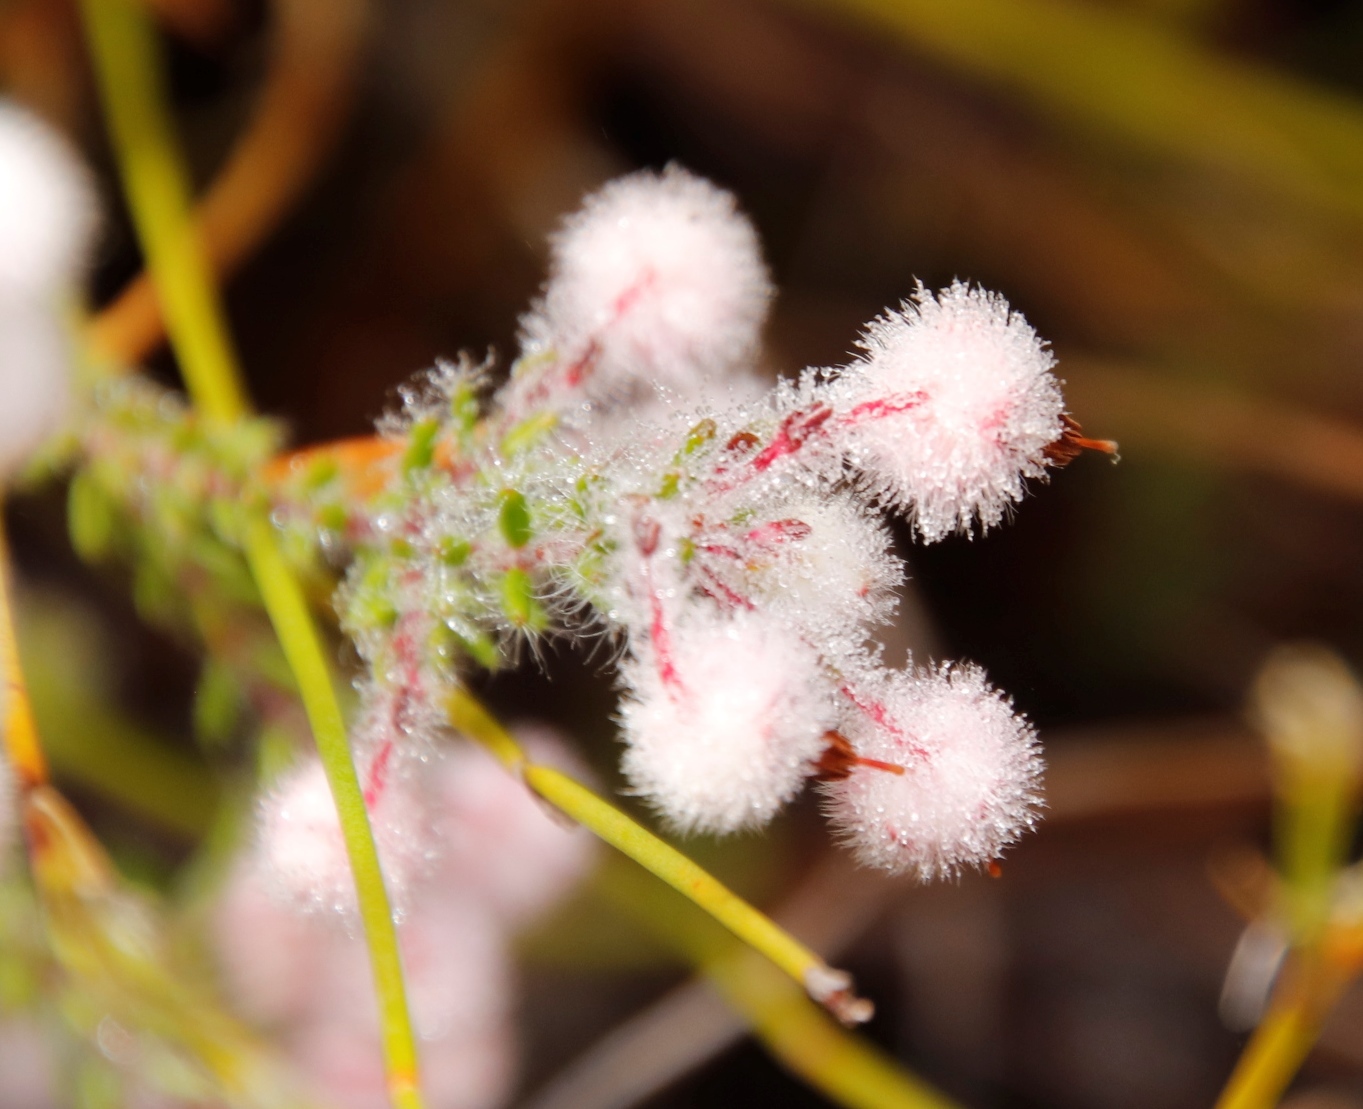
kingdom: Plantae
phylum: Tracheophyta
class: Magnoliopsida
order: Ericales
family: Ericaceae
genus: Erica
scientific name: Erica bruniades
